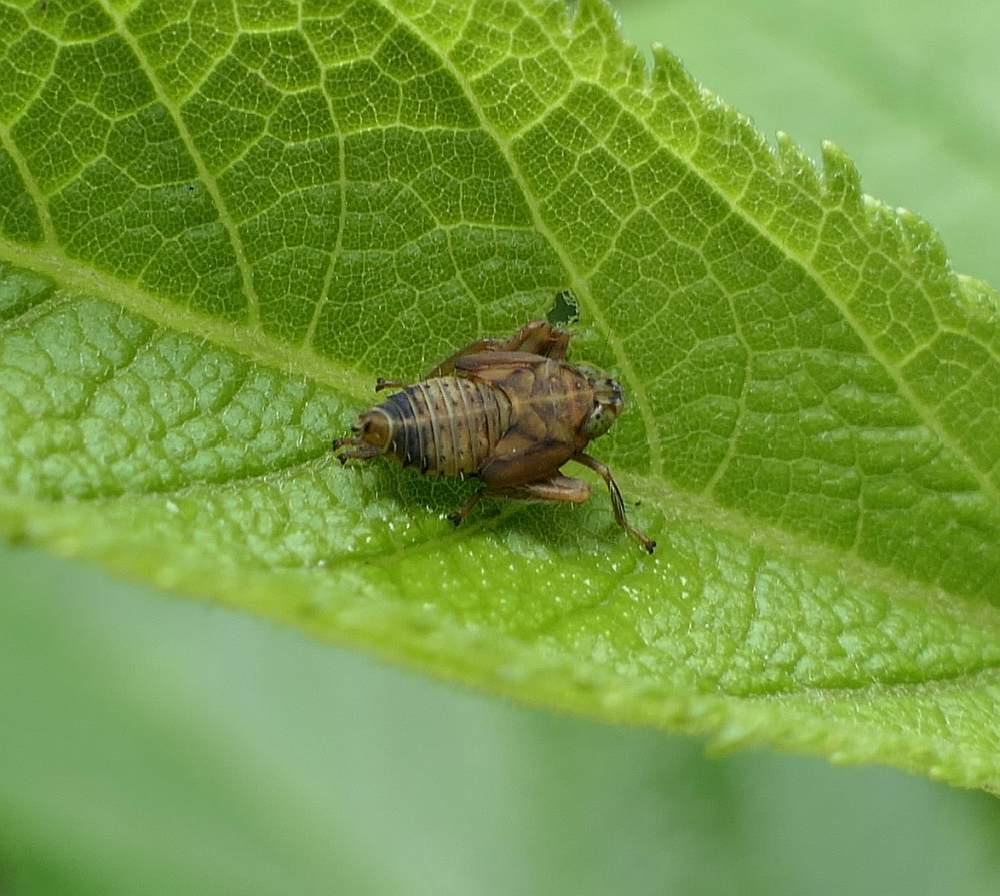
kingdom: Animalia
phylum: Arthropoda
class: Insecta
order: Hemiptera
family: Cicadellidae
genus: Jikradia
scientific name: Jikradia olitoria
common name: Coppery leafhopper
